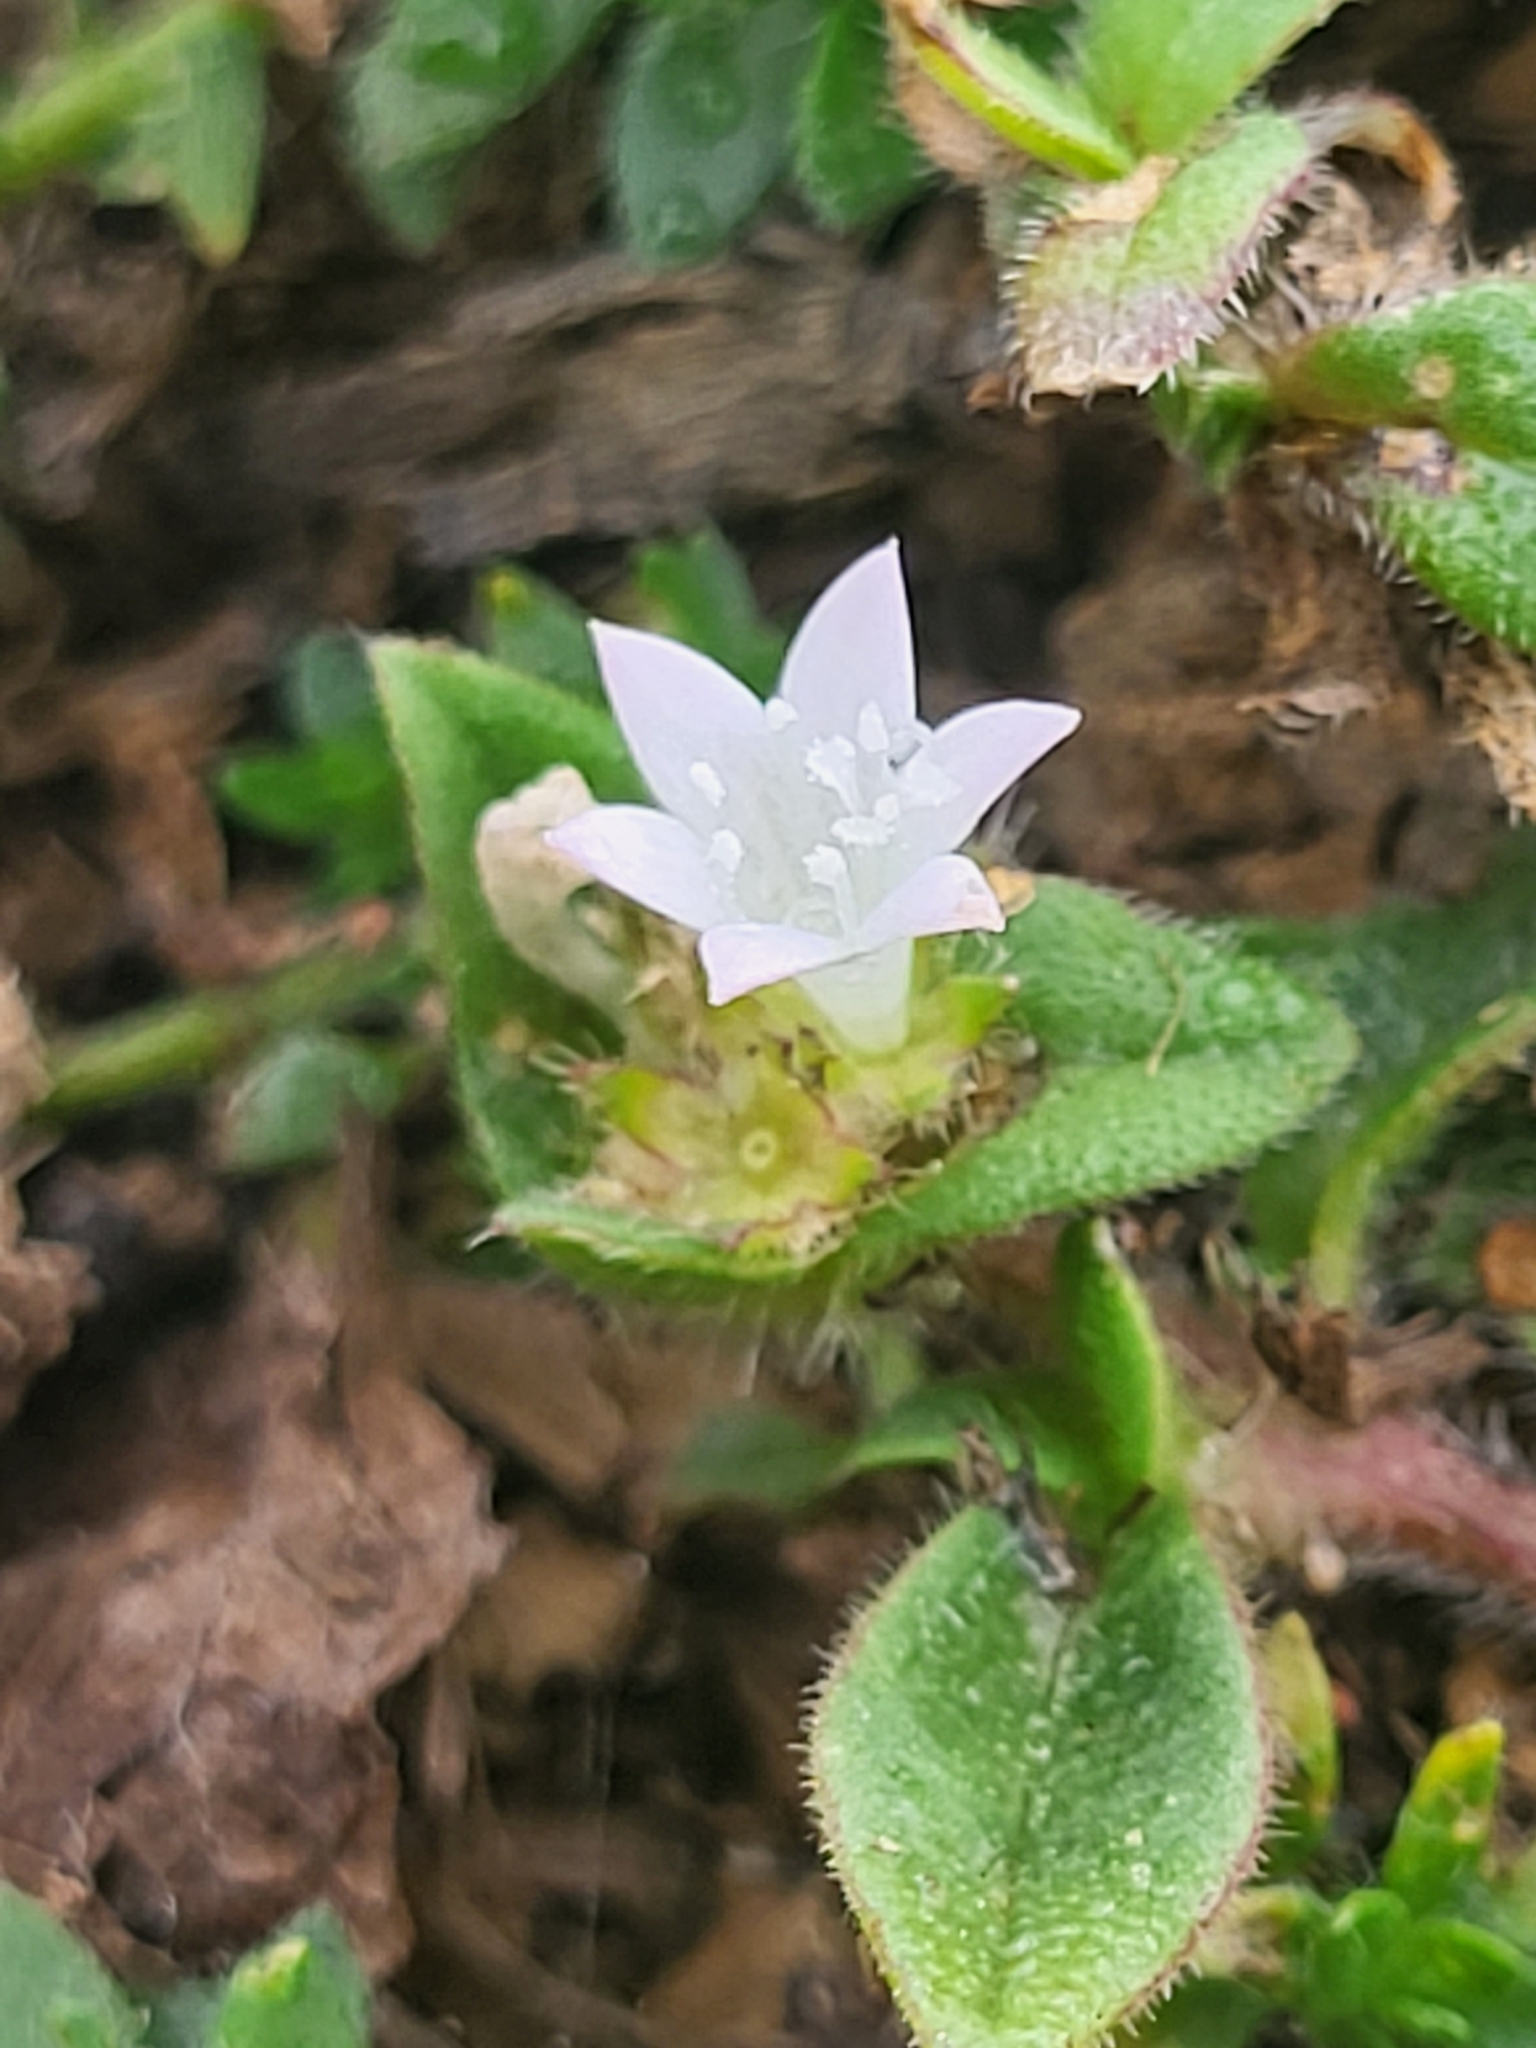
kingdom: Plantae
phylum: Tracheophyta
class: Magnoliopsida
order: Gentianales
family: Rubiaceae
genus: Richardia
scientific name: Richardia scabra
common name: Rough mexican clover
